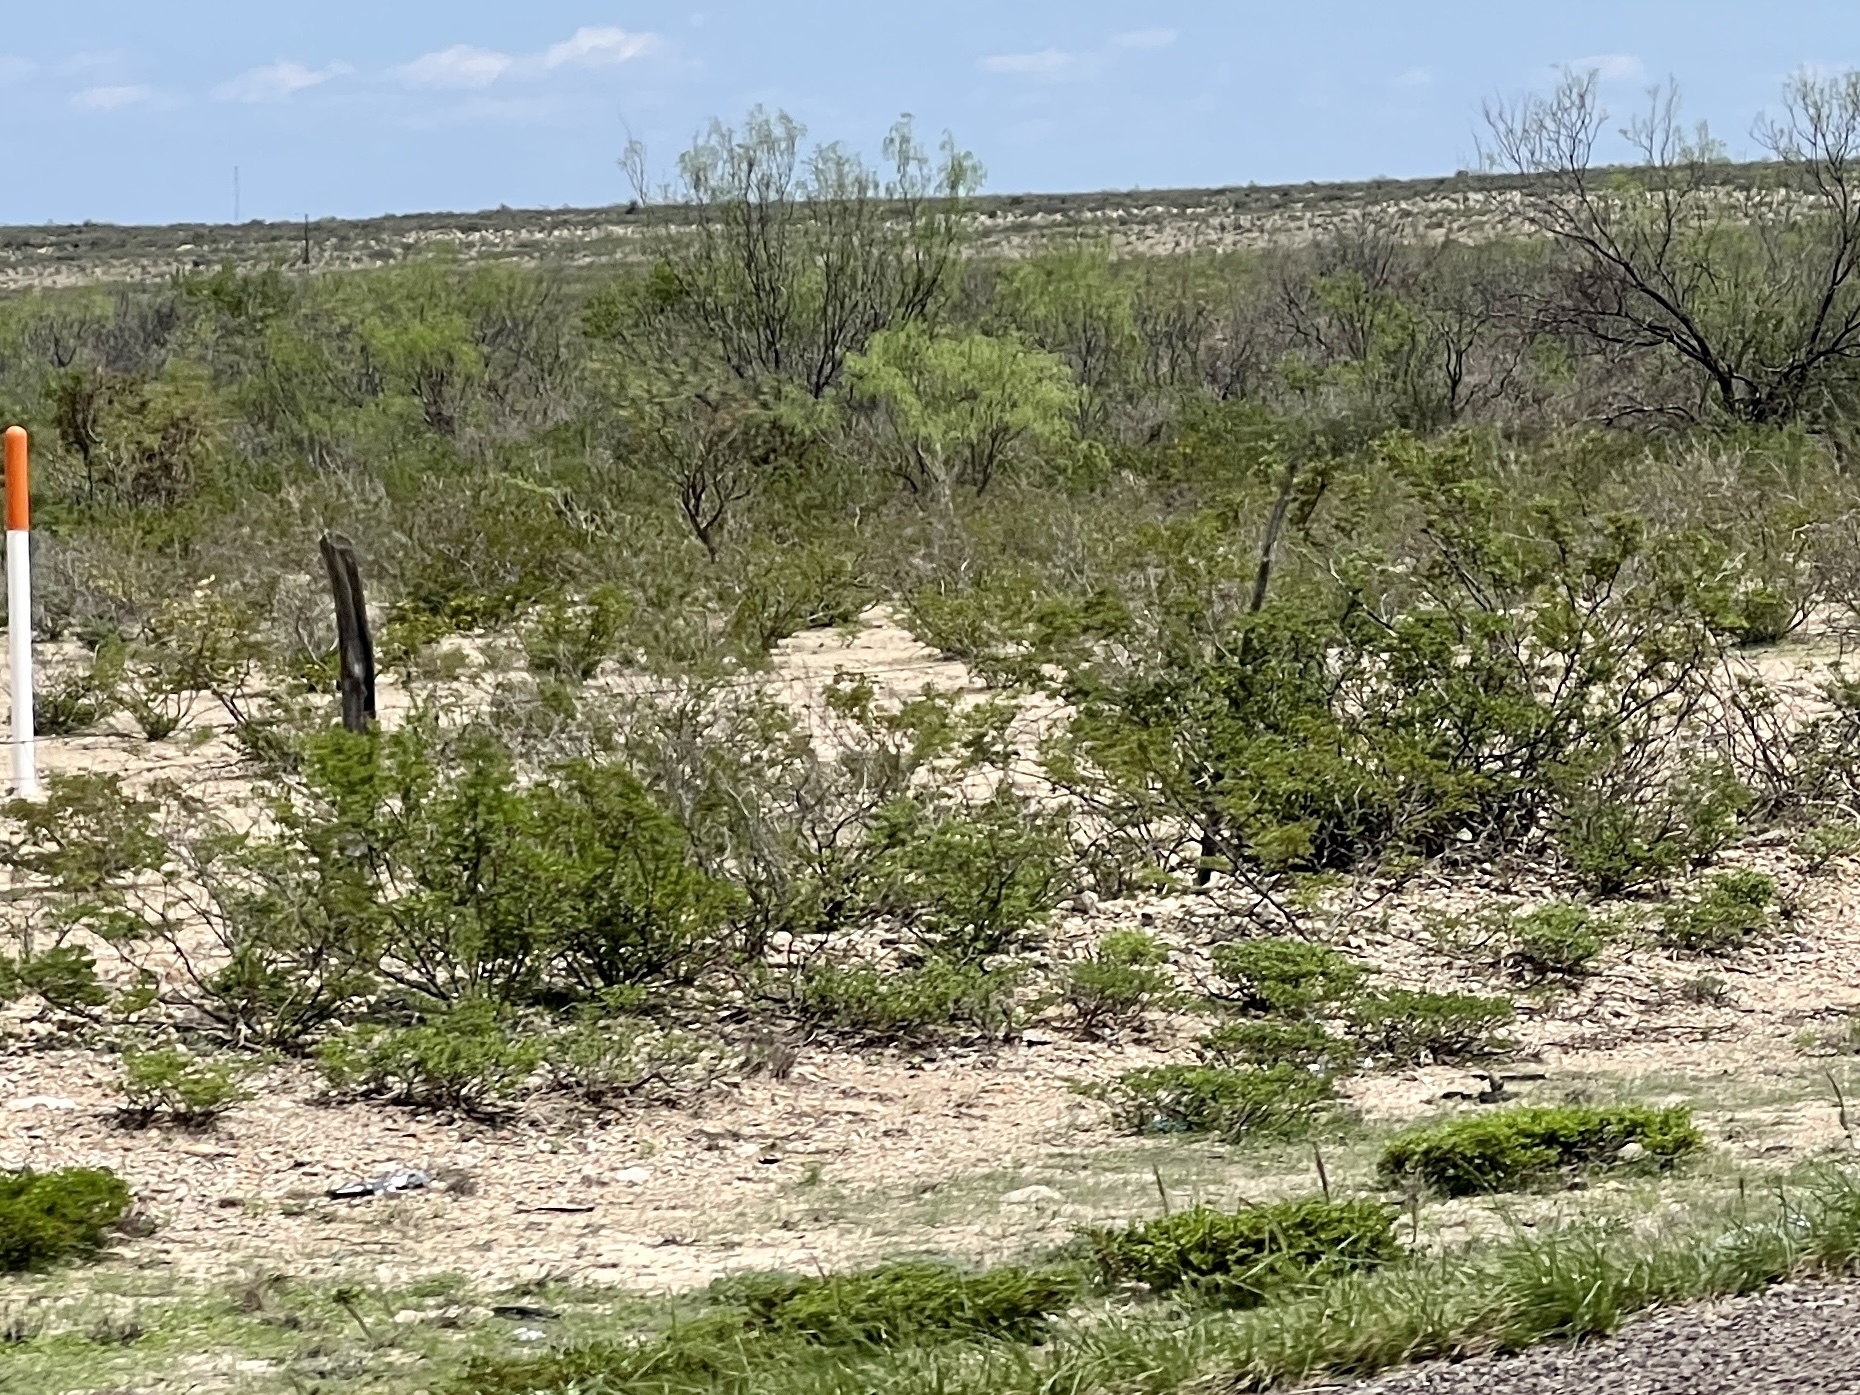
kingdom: Plantae
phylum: Tracheophyta
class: Magnoliopsida
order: Zygophyllales
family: Zygophyllaceae
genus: Larrea
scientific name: Larrea tridentata
